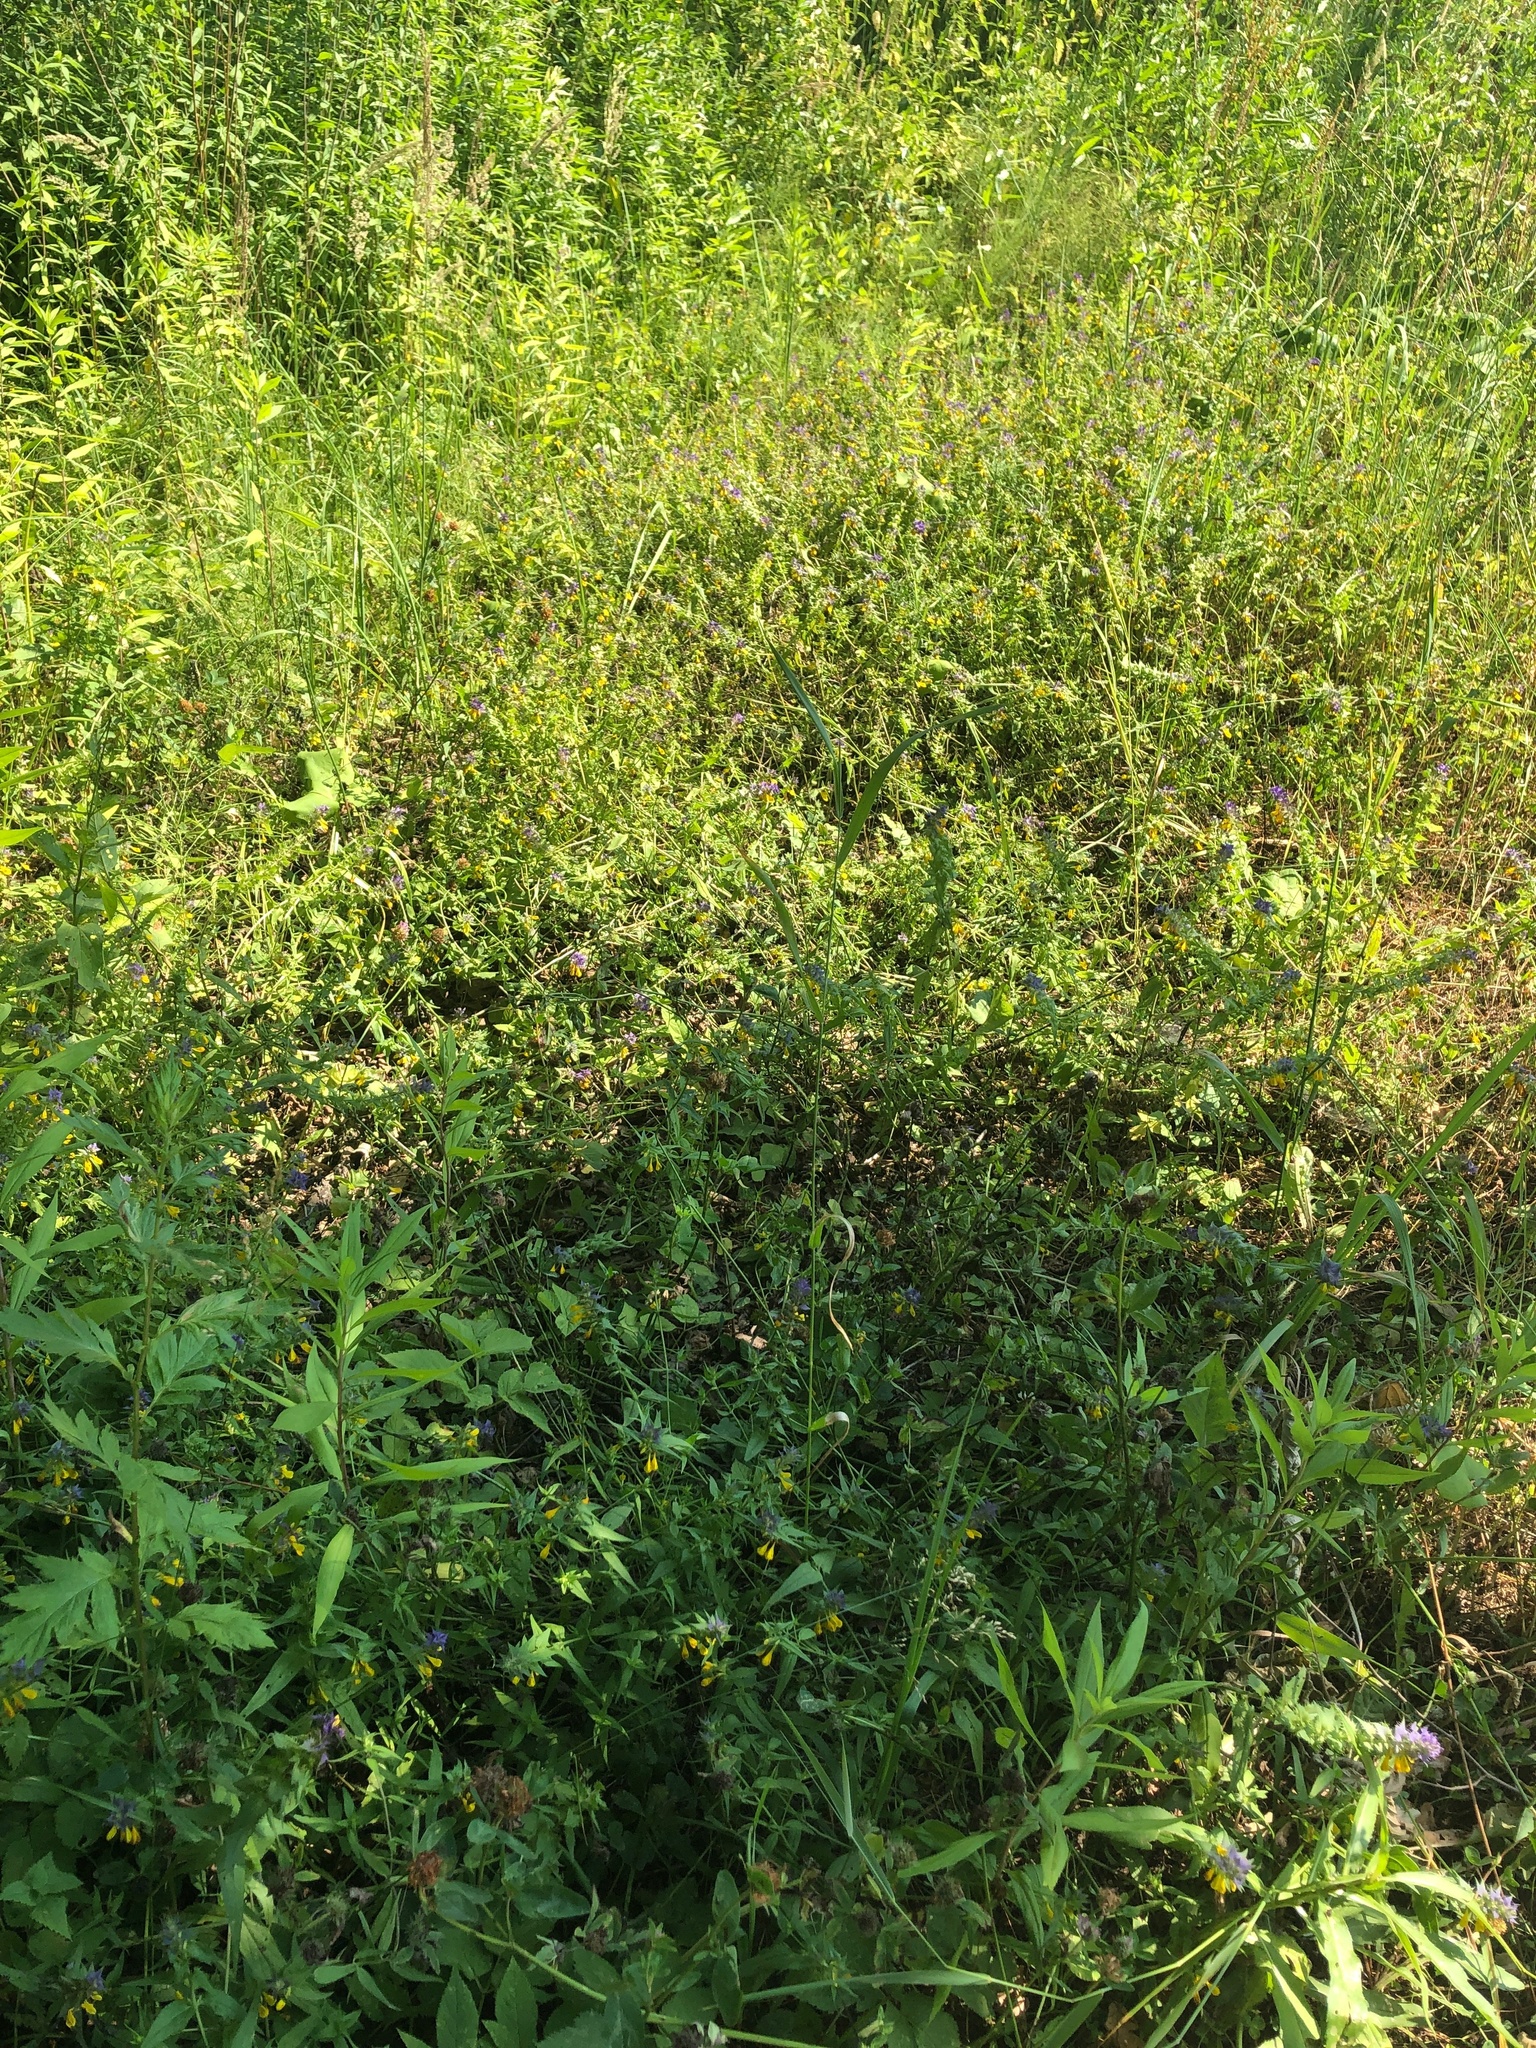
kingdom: Plantae
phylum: Tracheophyta
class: Magnoliopsida
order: Lamiales
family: Orobanchaceae
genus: Melampyrum
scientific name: Melampyrum nemorosum
